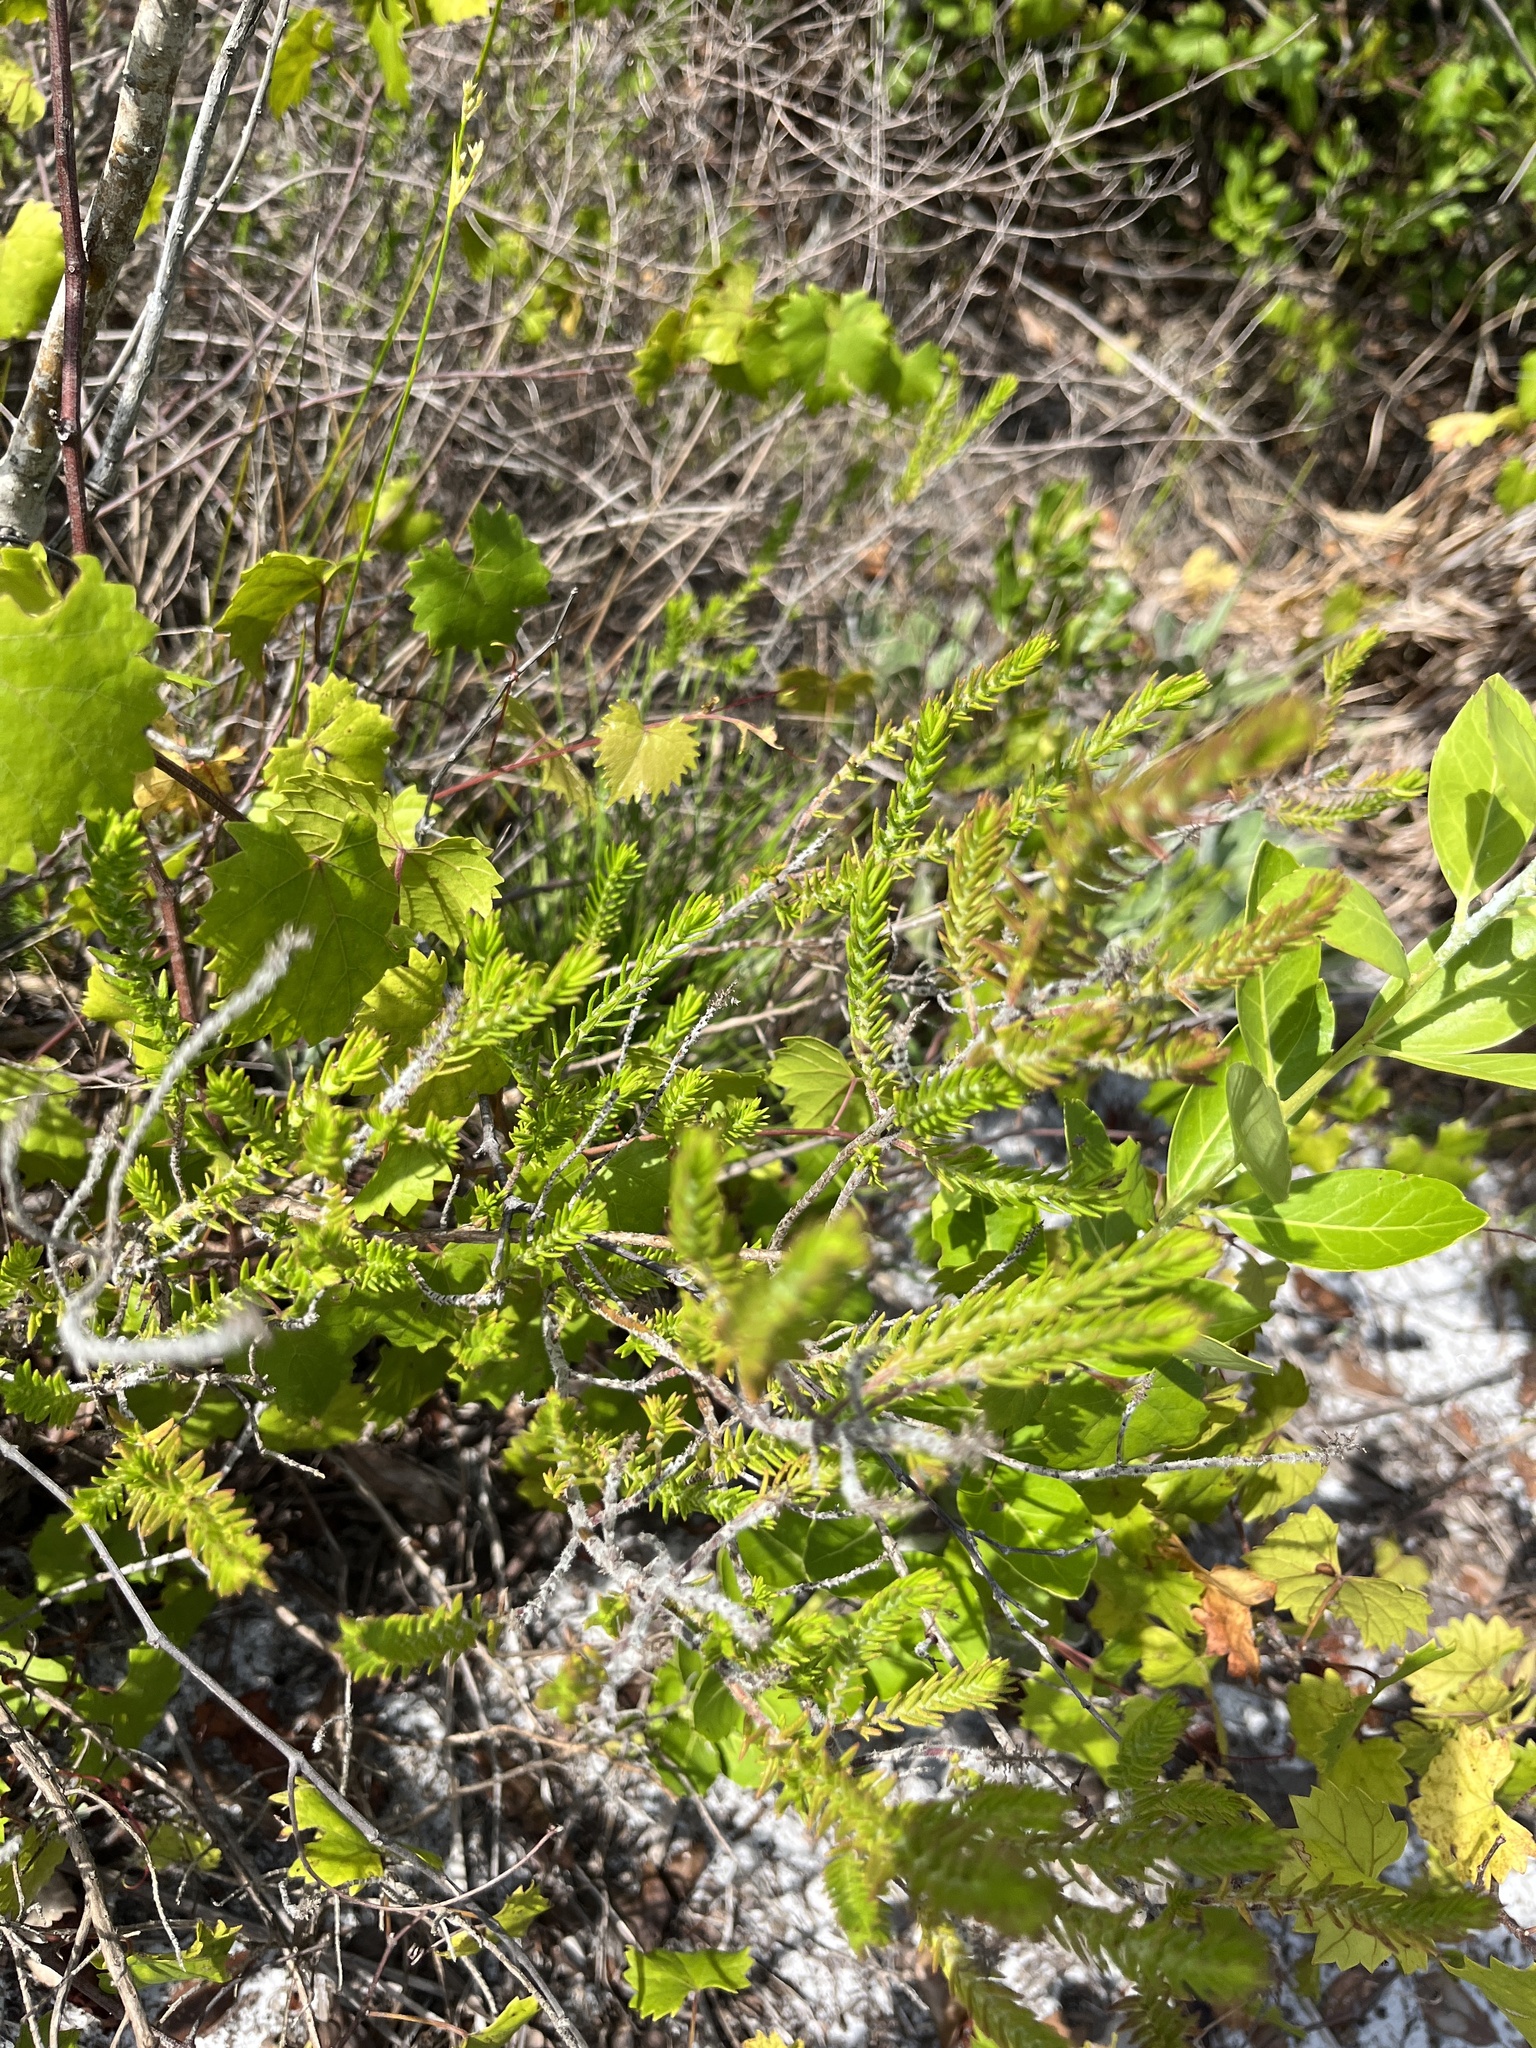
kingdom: Plantae
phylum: Tracheophyta
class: Magnoliopsida
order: Lamiales
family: Lamiaceae
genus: Piloblephis
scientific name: Piloblephis rigida
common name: Wild pennyroyal
